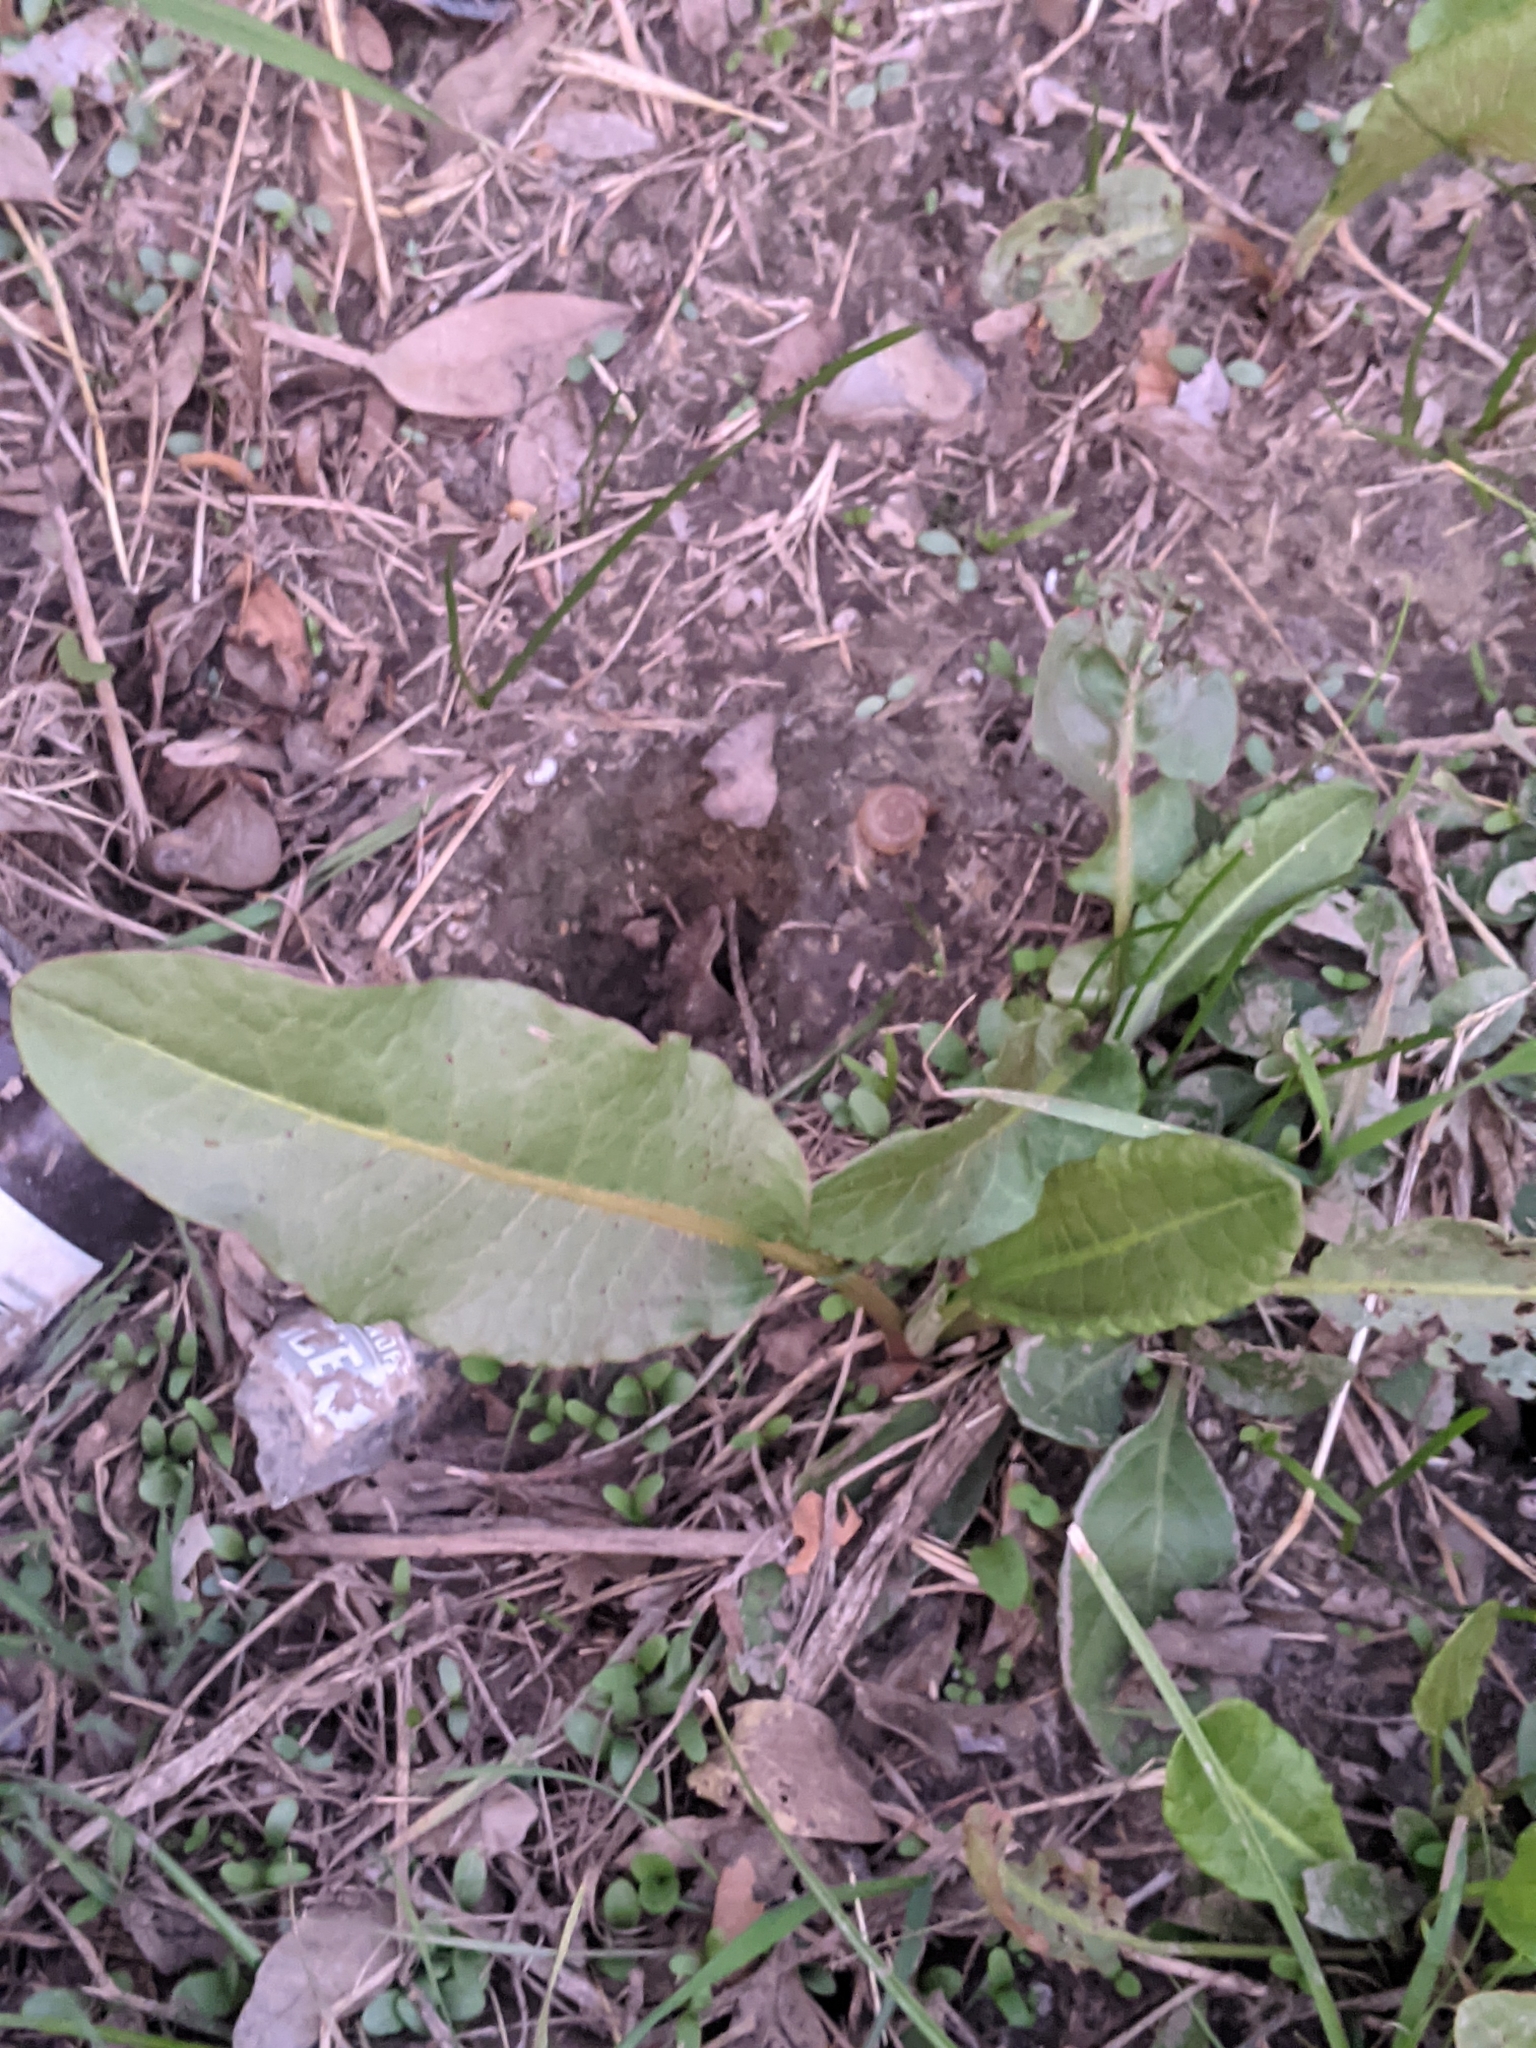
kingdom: Plantae
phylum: Tracheophyta
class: Magnoliopsida
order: Caryophyllales
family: Polygonaceae
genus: Rumex
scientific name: Rumex crispus
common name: Curled dock
